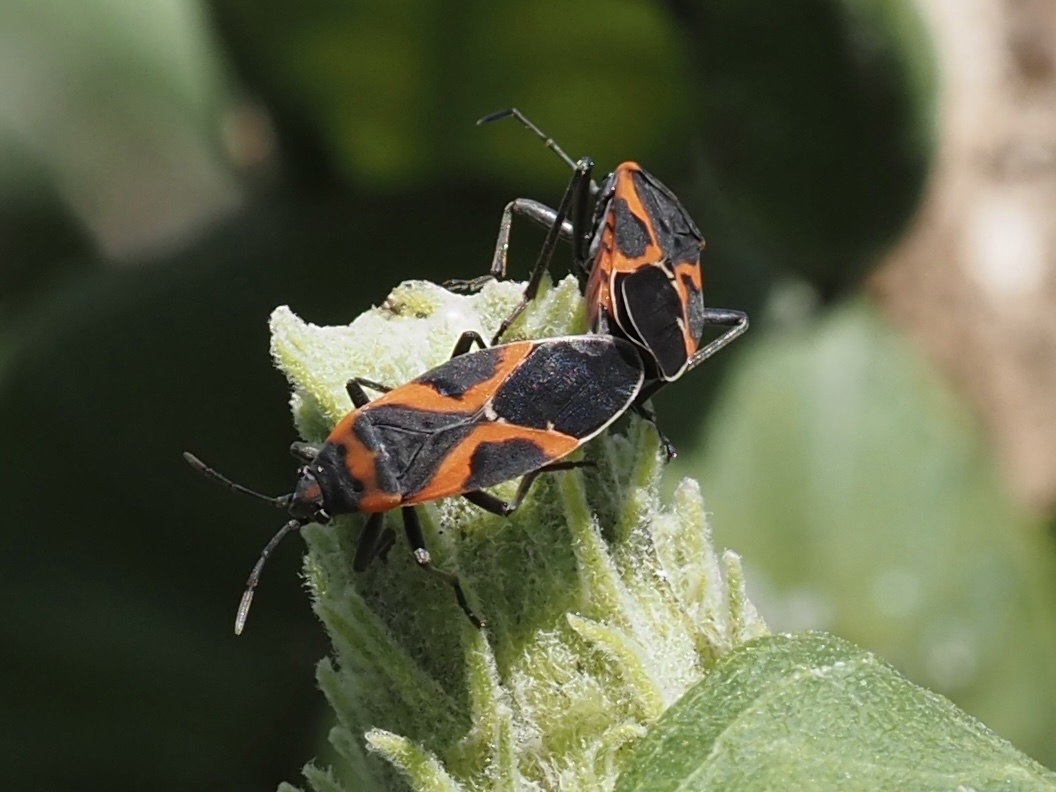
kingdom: Animalia
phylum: Arthropoda
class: Insecta
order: Hemiptera
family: Lygaeidae
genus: Lygaeus
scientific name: Lygaeus kalmii
